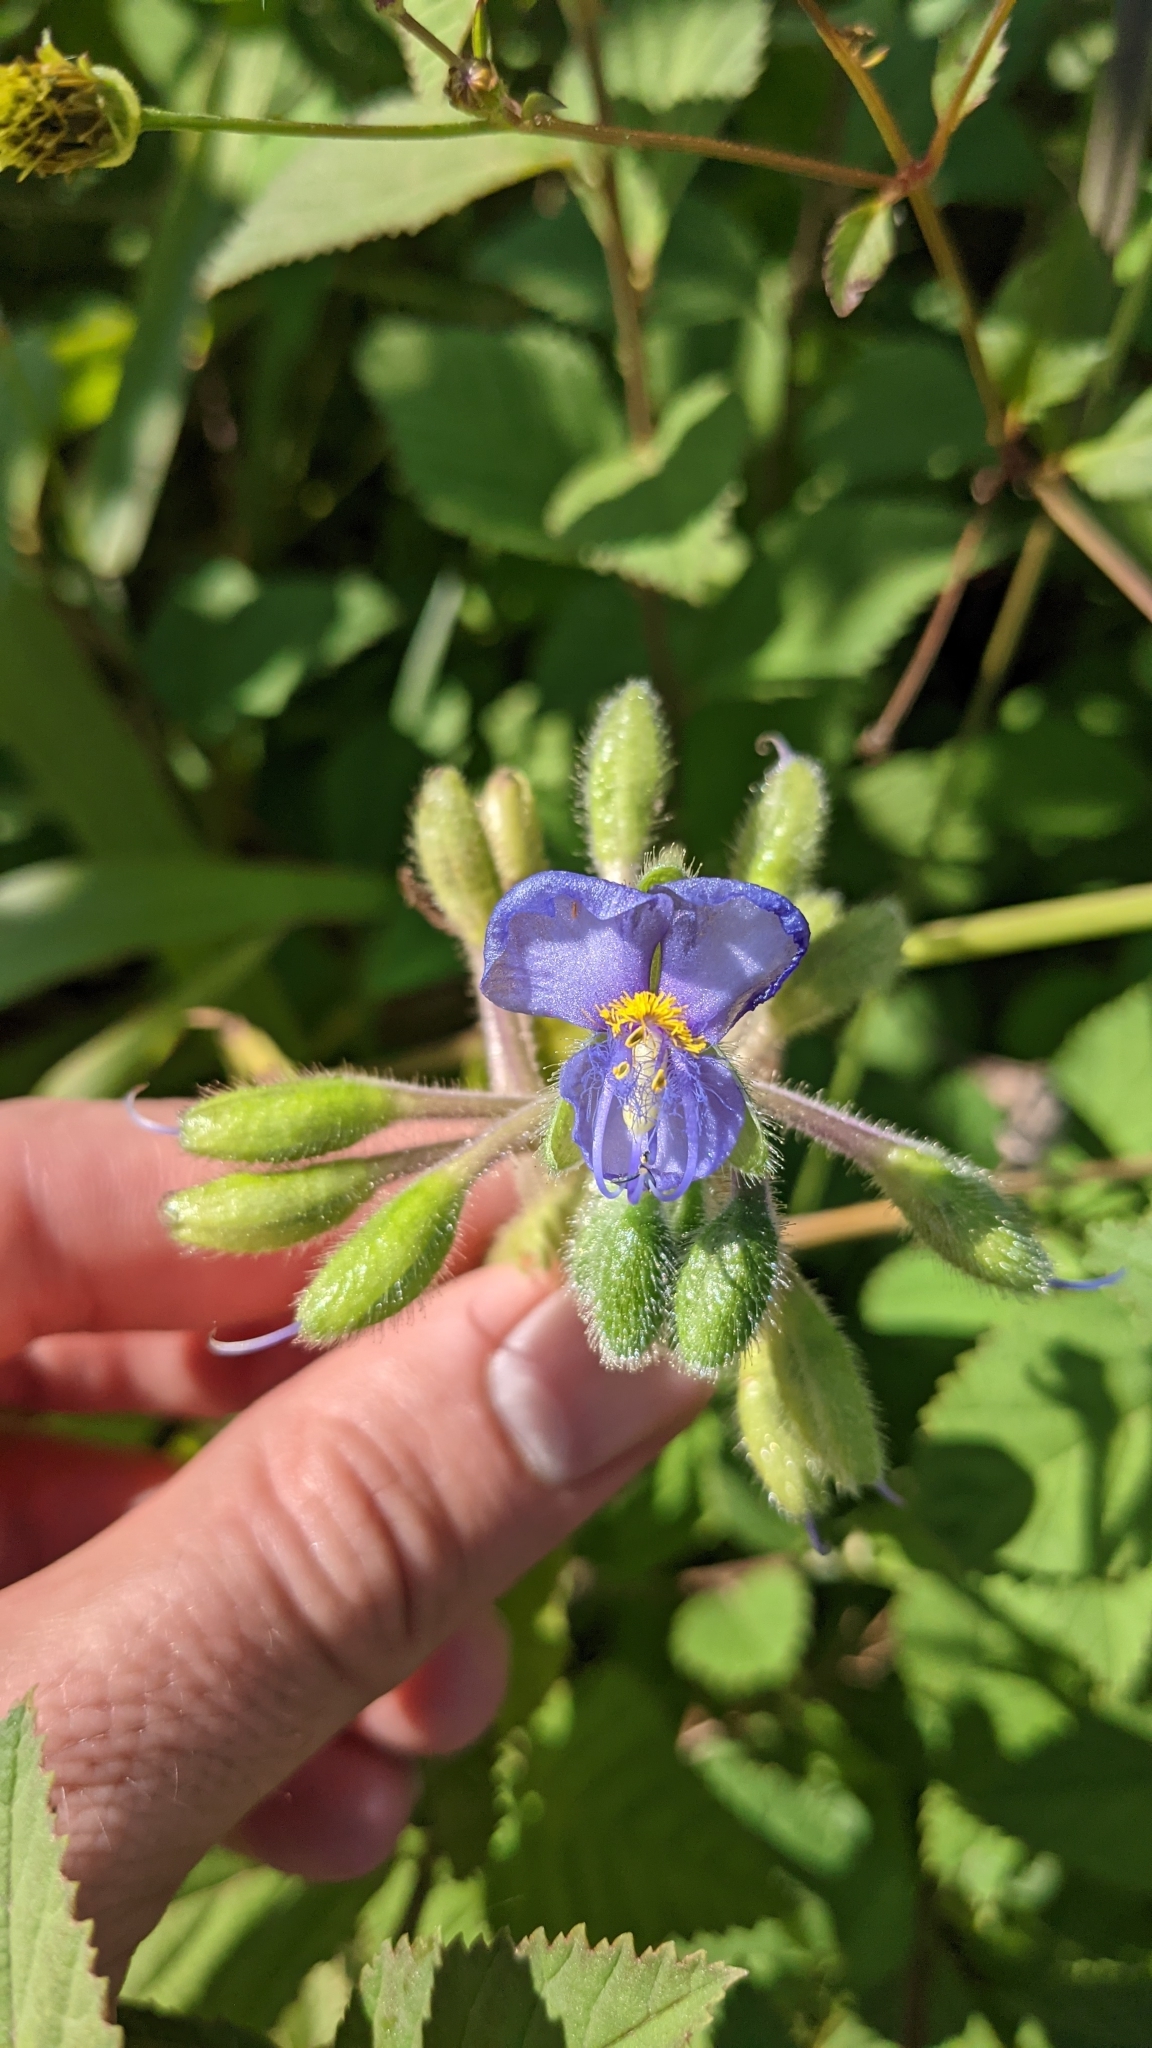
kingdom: Plantae
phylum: Tracheophyta
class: Liliopsida
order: Commelinales
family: Commelinaceae
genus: Tinantia
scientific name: Tinantia erecta
